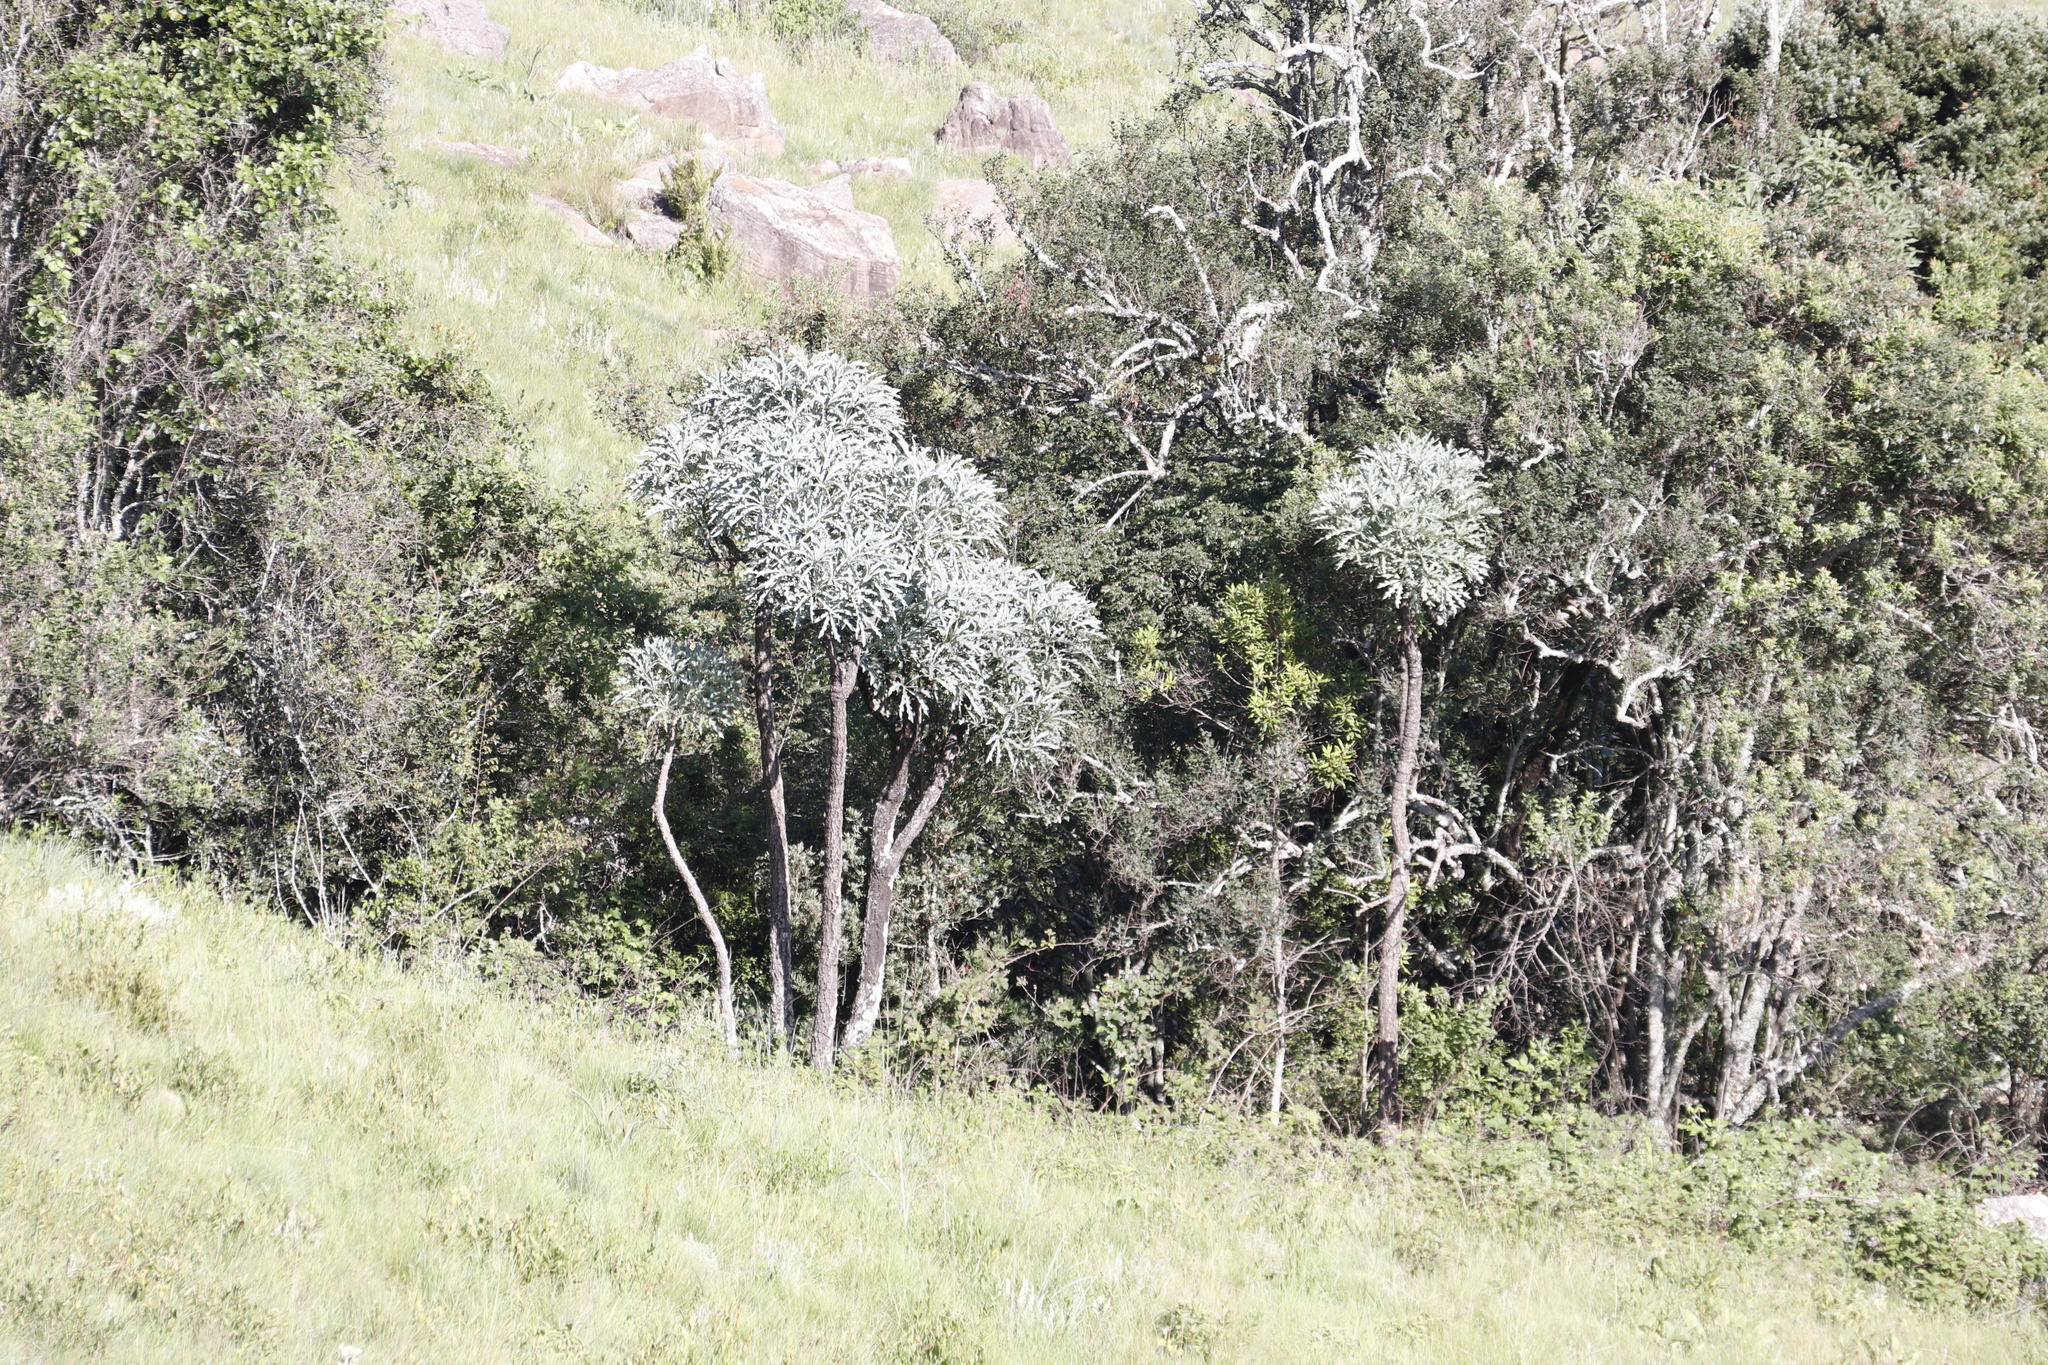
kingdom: Plantae
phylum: Tracheophyta
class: Magnoliopsida
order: Apiales
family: Araliaceae
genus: Cussonia
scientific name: Cussonia paniculata
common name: Cabbagetree
